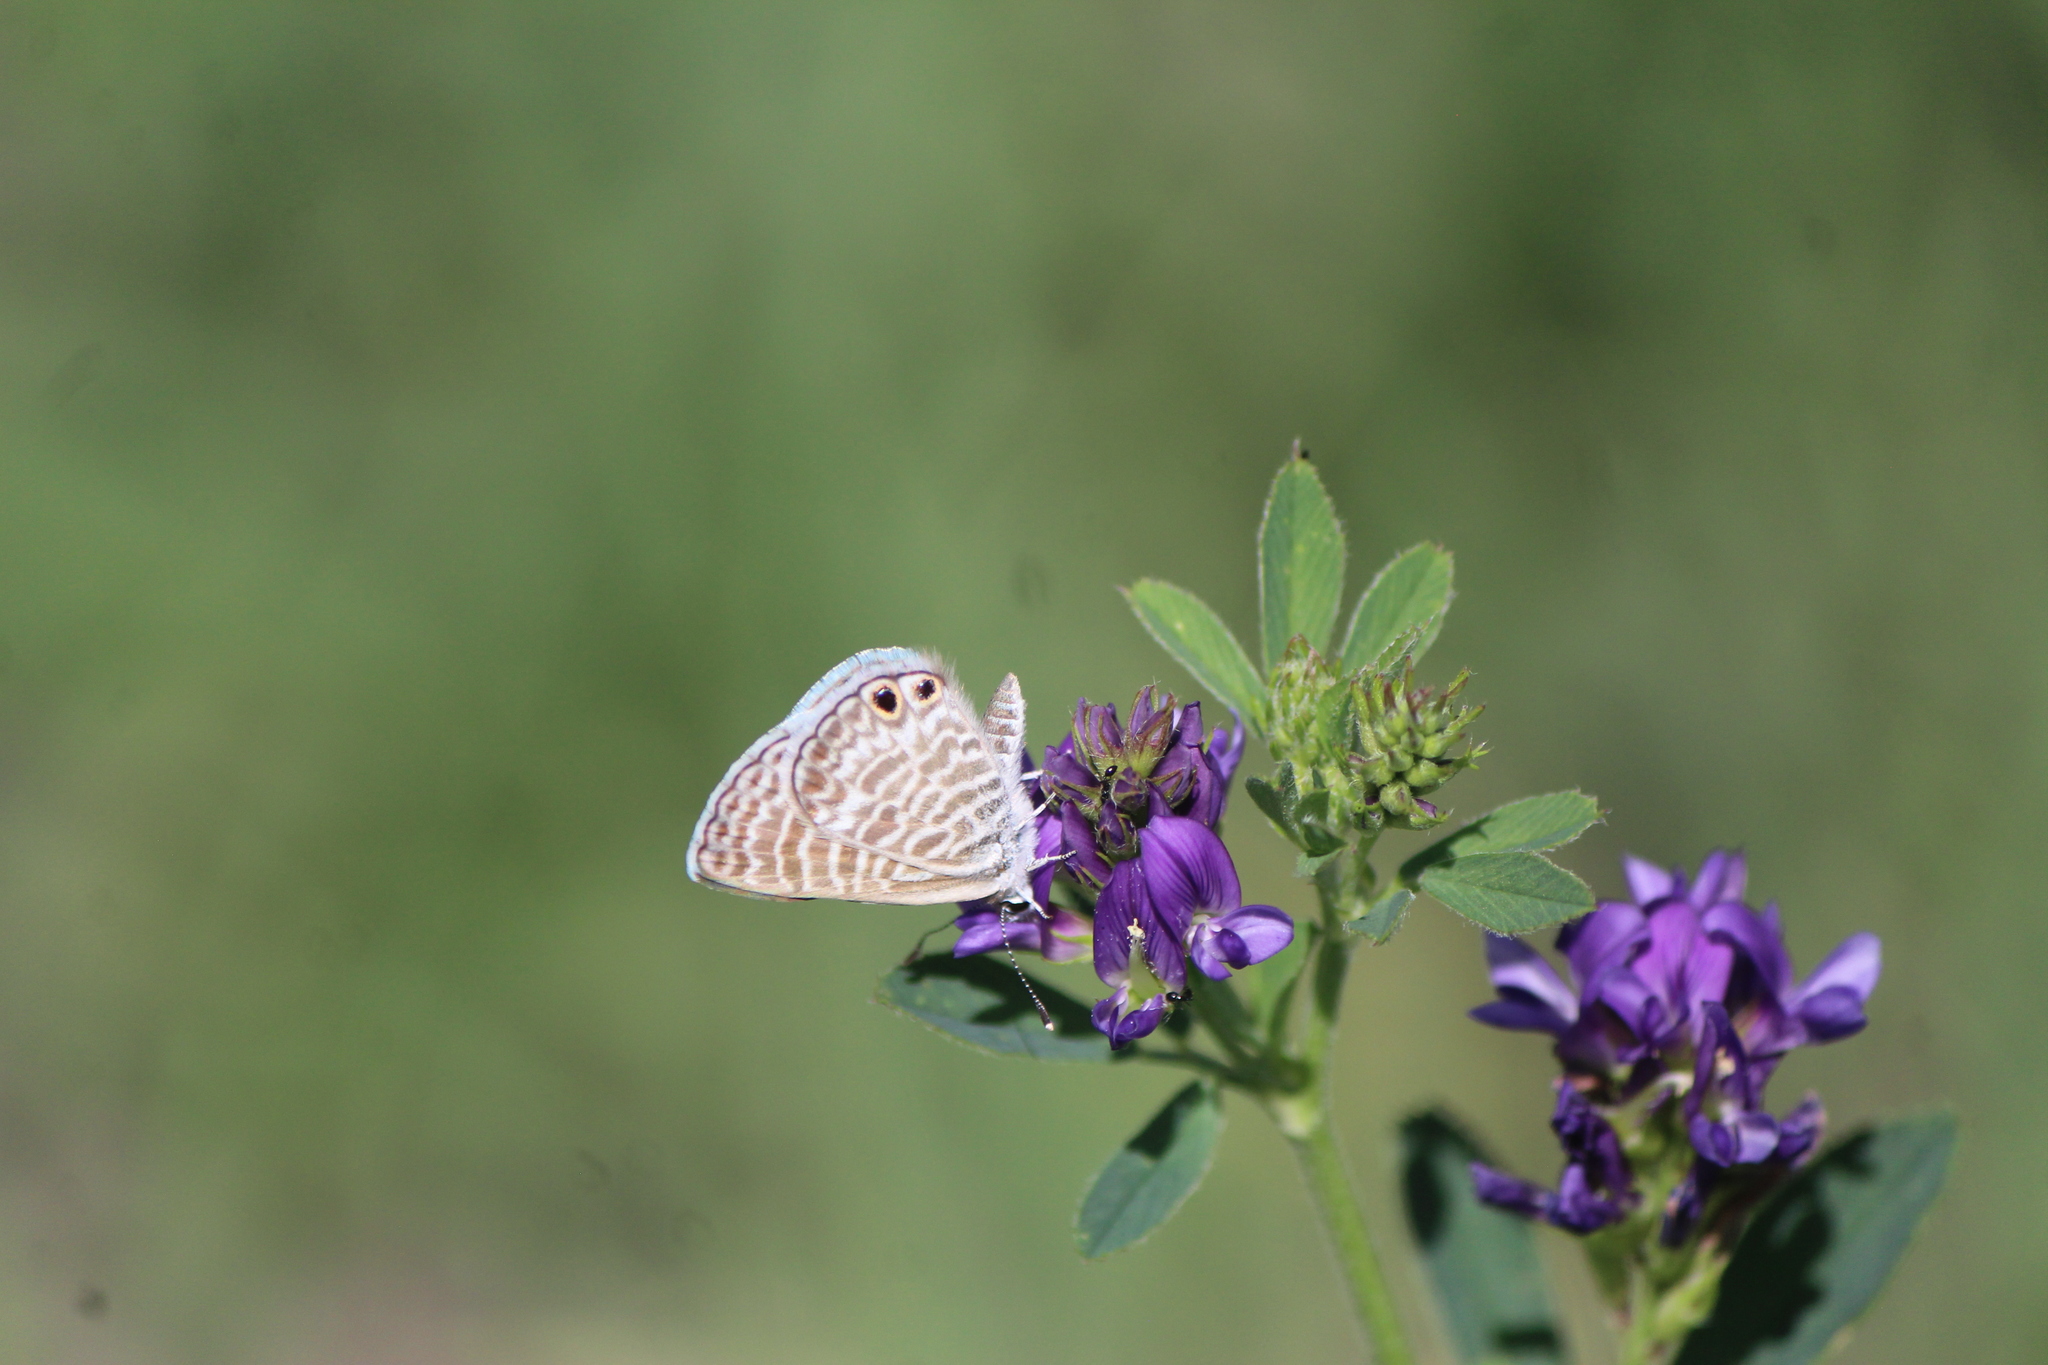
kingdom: Animalia
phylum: Arthropoda
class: Insecta
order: Lepidoptera
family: Lycaenidae
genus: Leptotes
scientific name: Leptotes marina
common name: Marine blue
